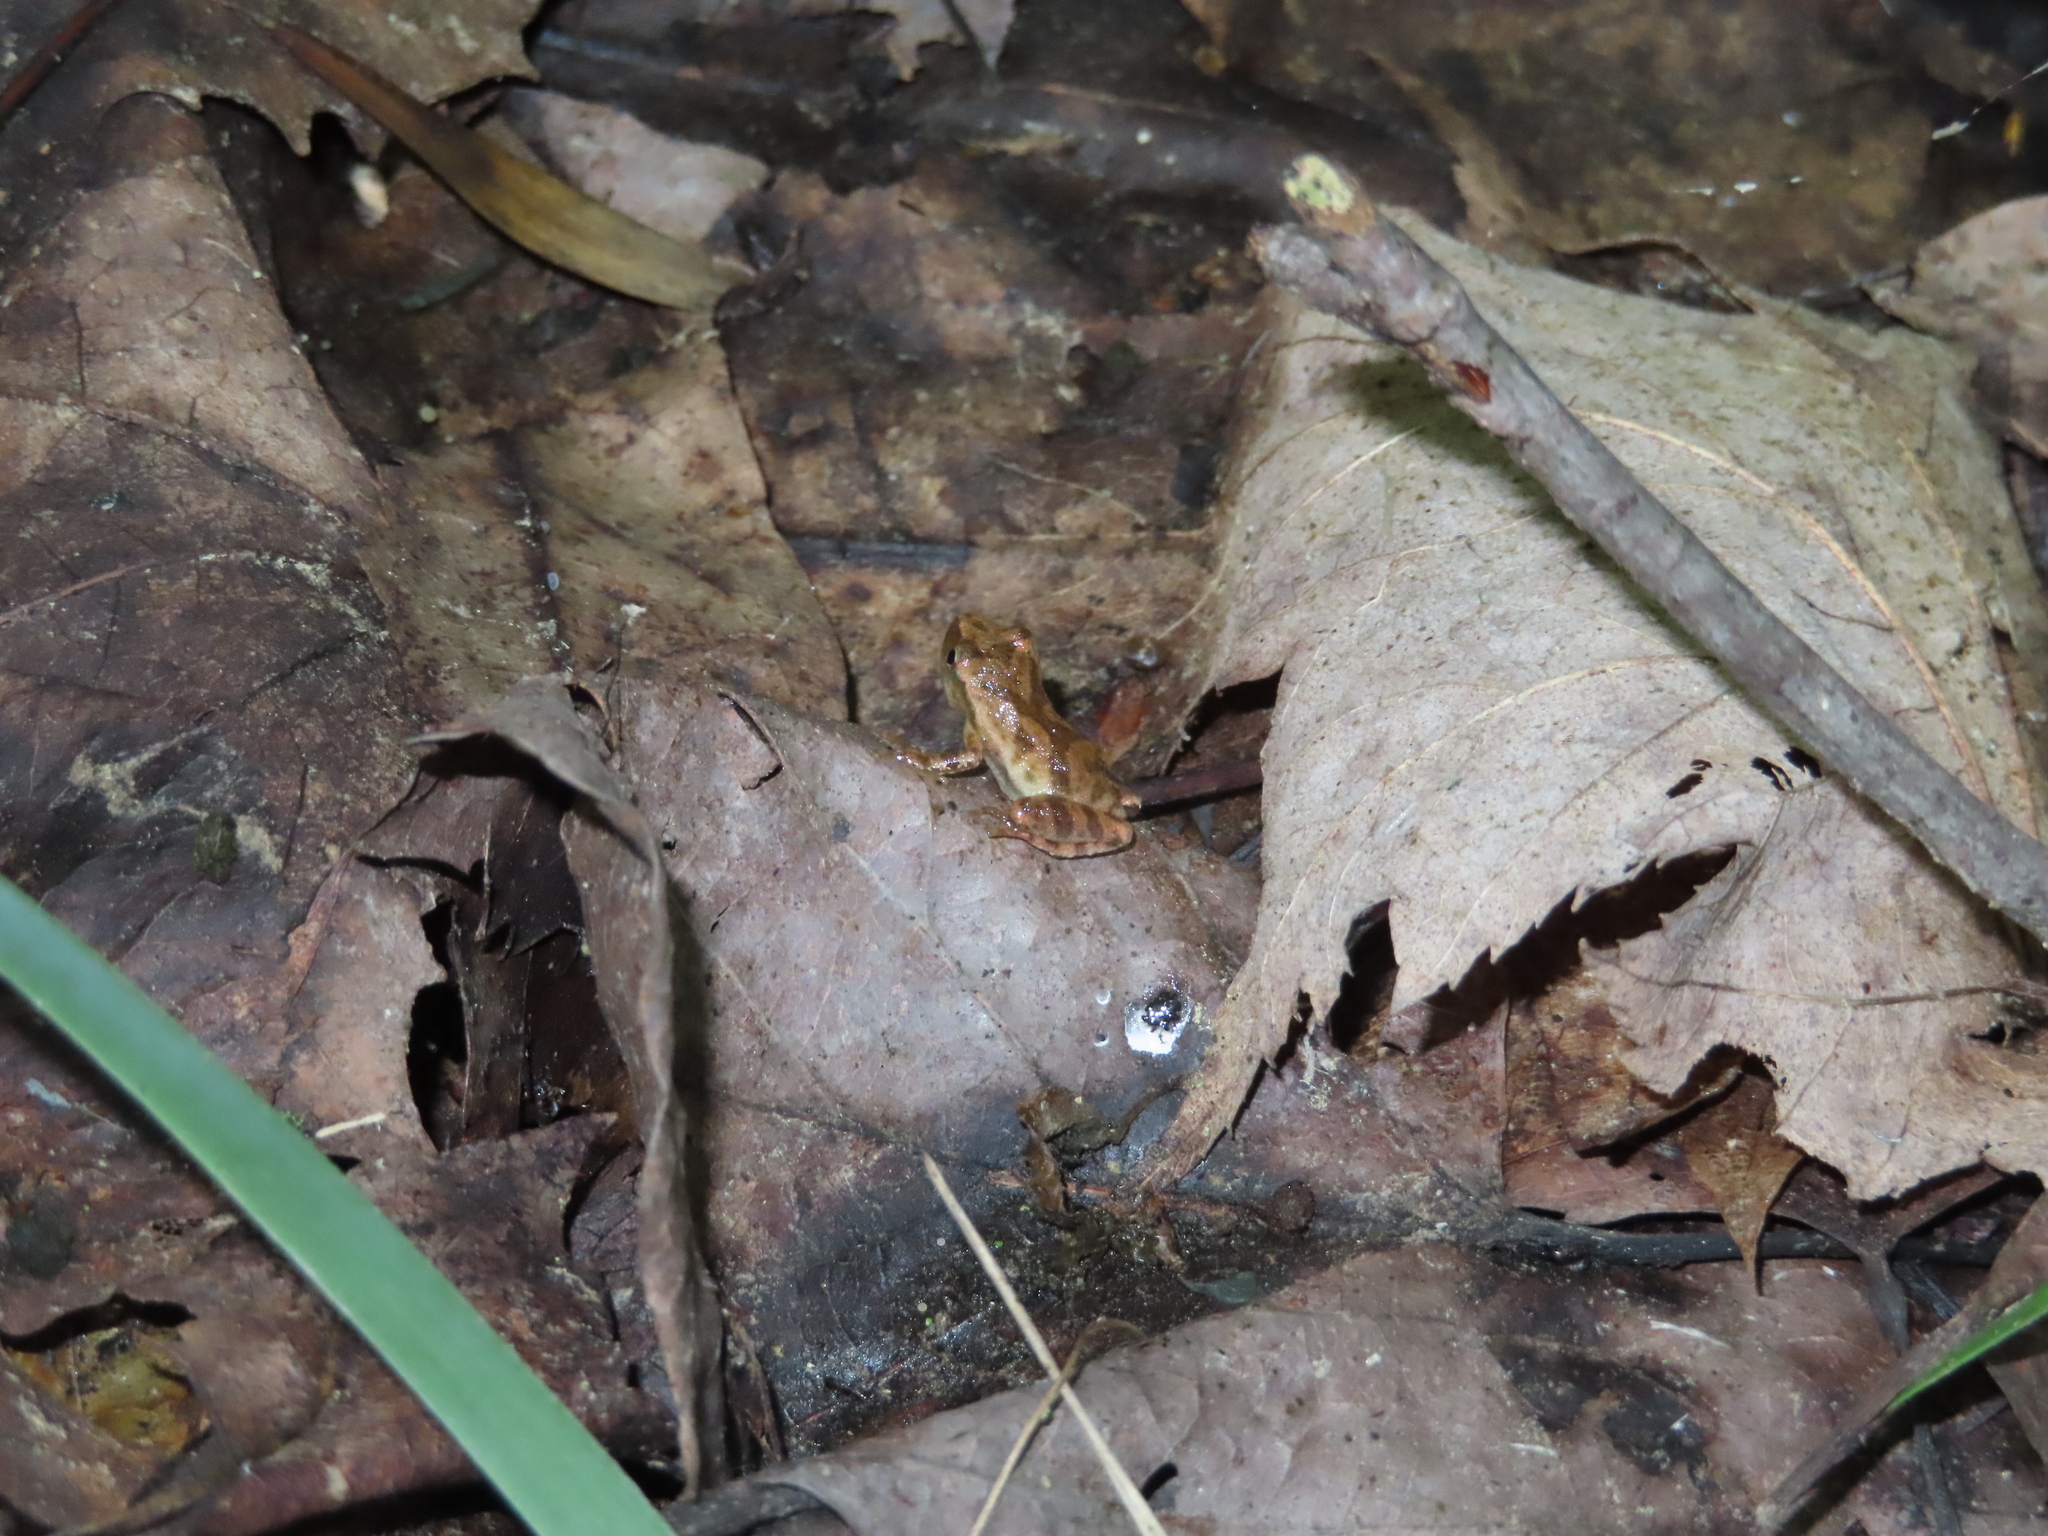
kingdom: Animalia
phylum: Chordata
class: Amphibia
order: Anura
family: Hylidae
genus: Pseudacris
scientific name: Pseudacris crucifer
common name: Spring peeper
